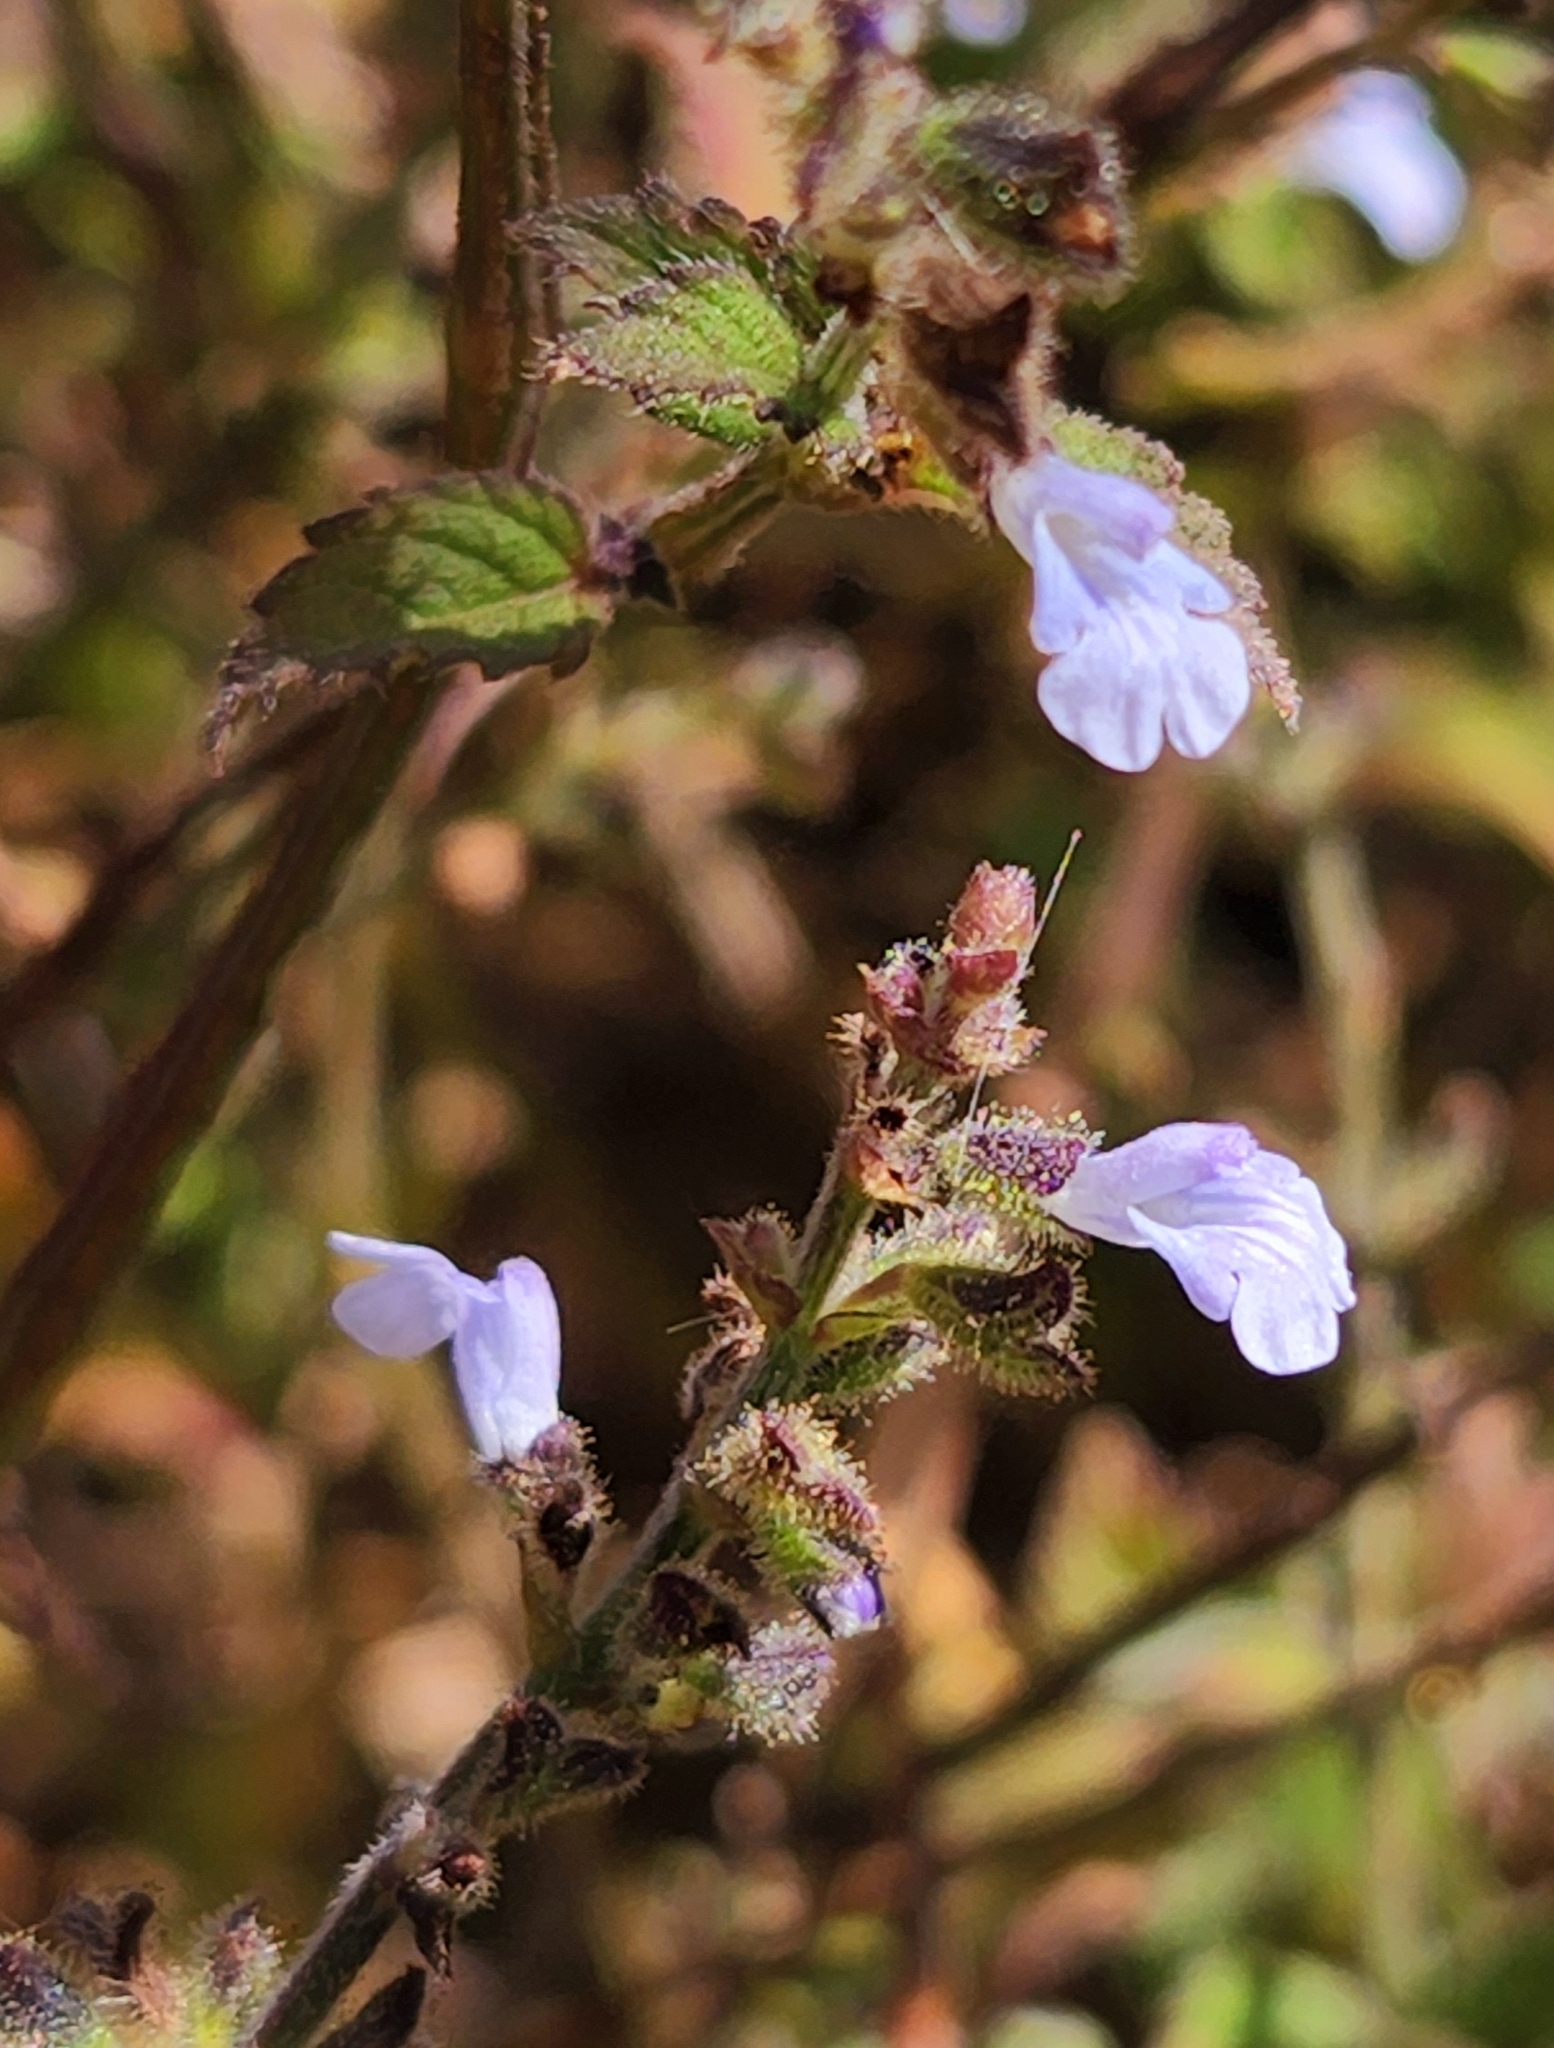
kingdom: Plantae
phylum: Tracheophyta
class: Magnoliopsida
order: Lamiales
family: Lamiaceae
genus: Salvia
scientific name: Salvia pseudomisella
